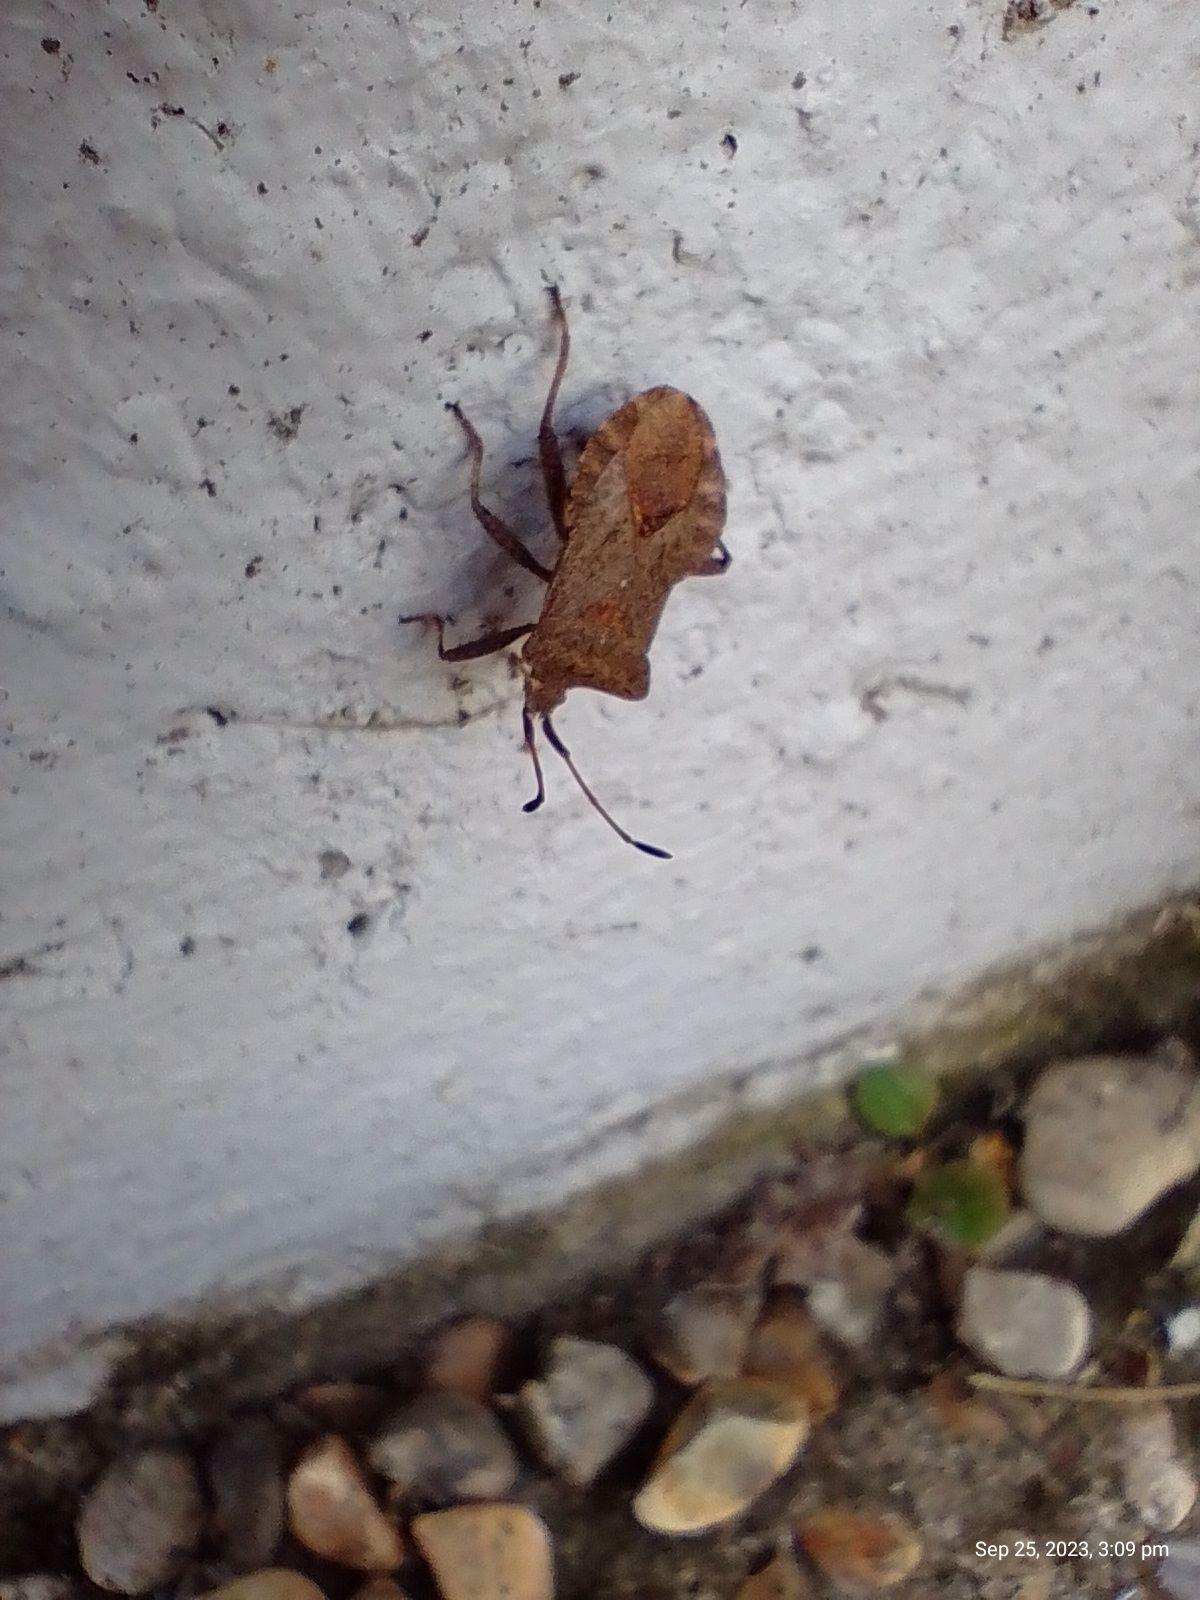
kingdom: Animalia
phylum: Arthropoda
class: Insecta
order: Hemiptera
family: Coreidae
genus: Coreus
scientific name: Coreus marginatus
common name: Dock bug
